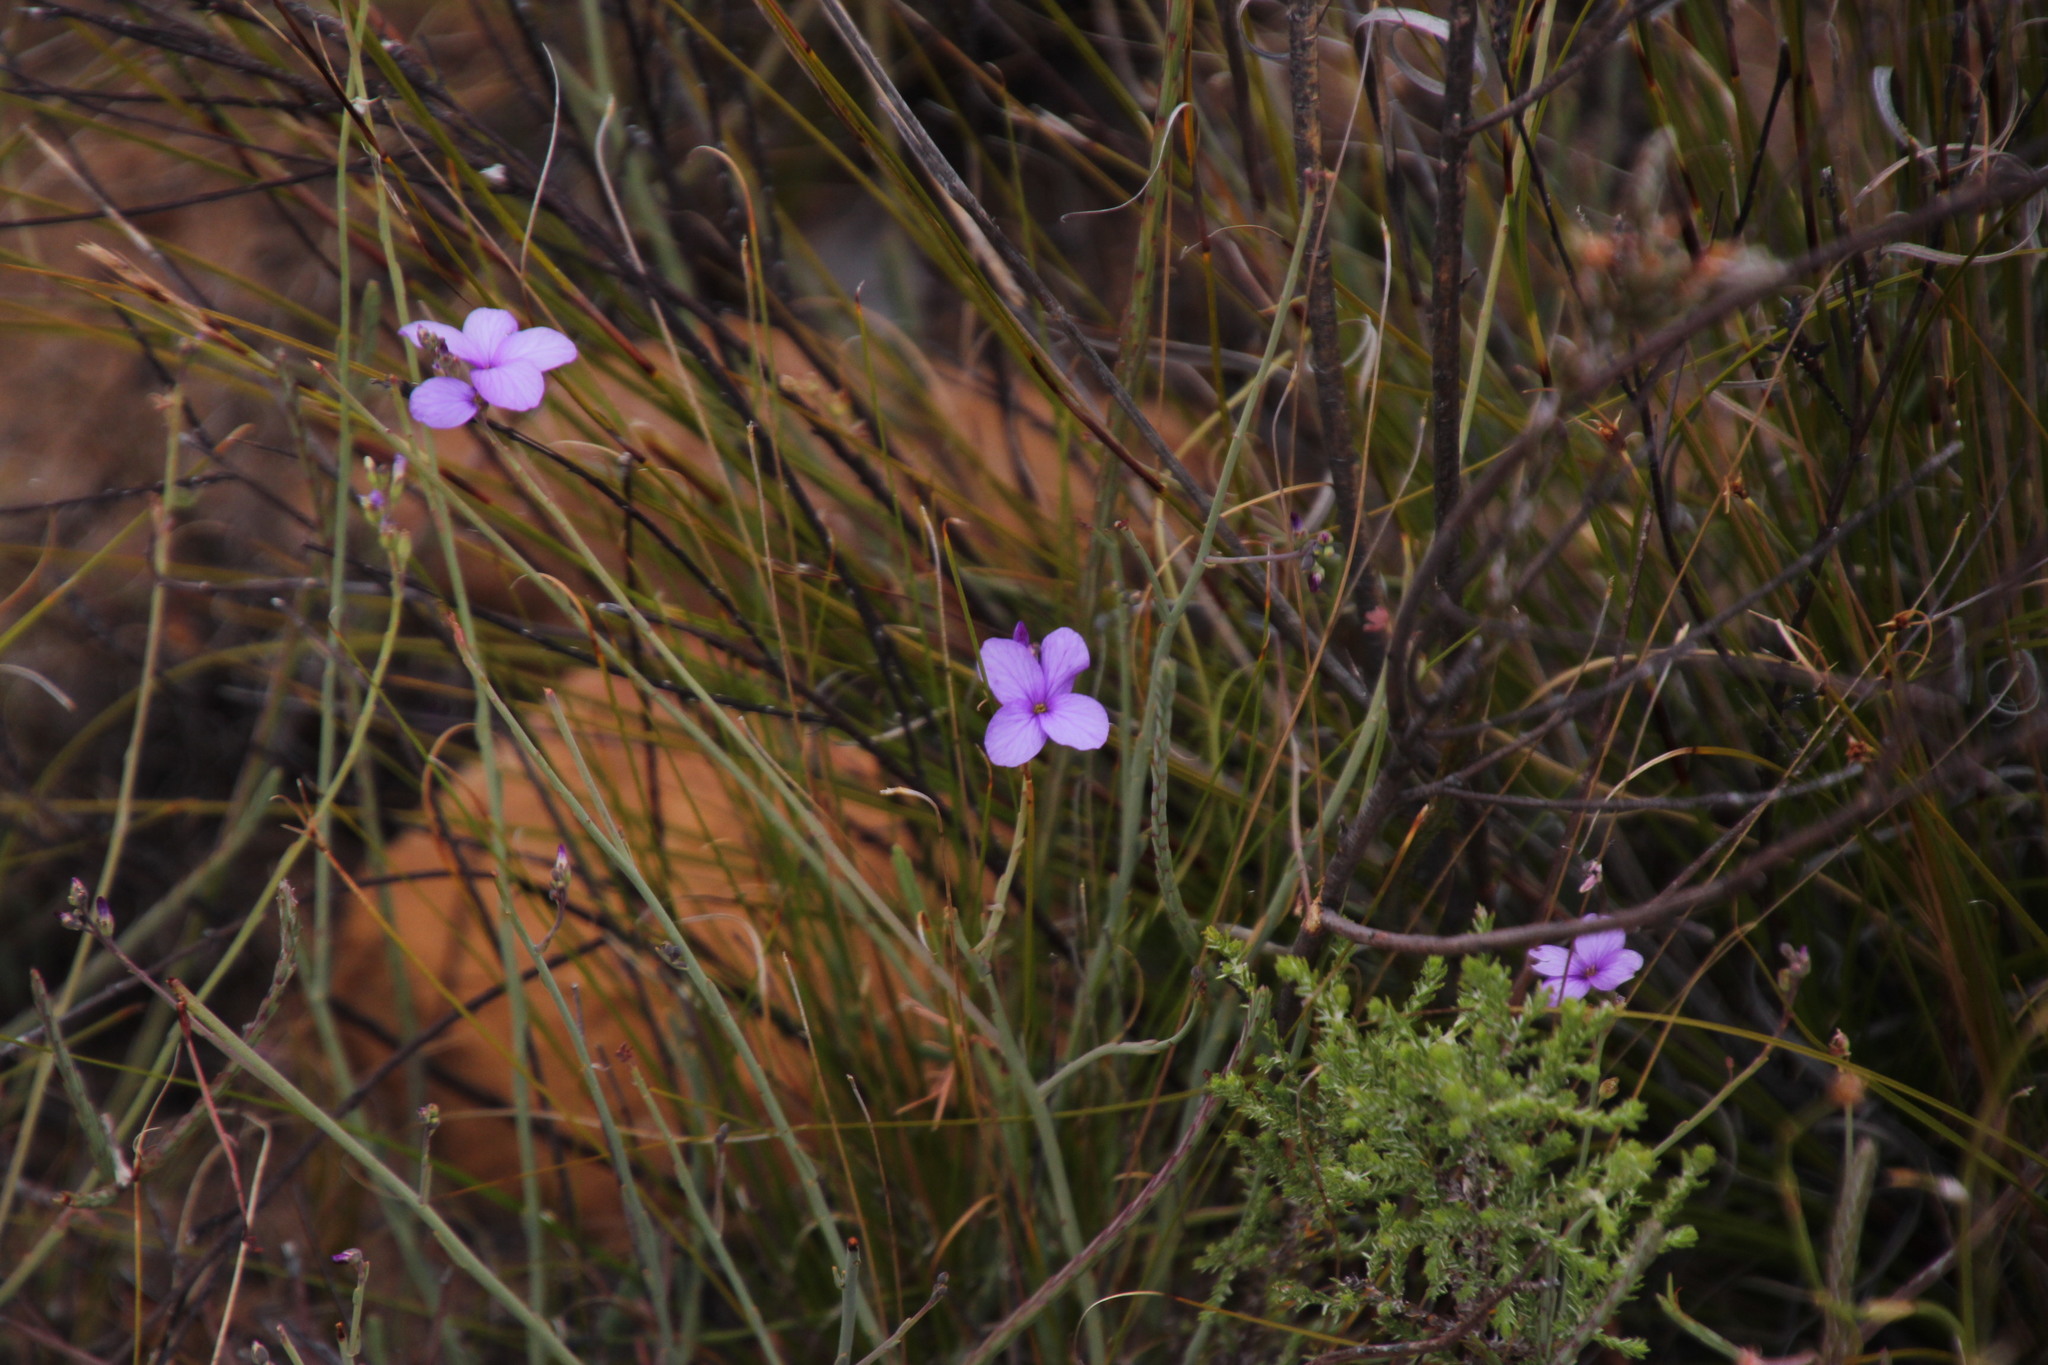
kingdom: Plantae
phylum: Tracheophyta
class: Magnoliopsida
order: Brassicales
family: Brassicaceae
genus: Heliophila
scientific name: Heliophila juncea
